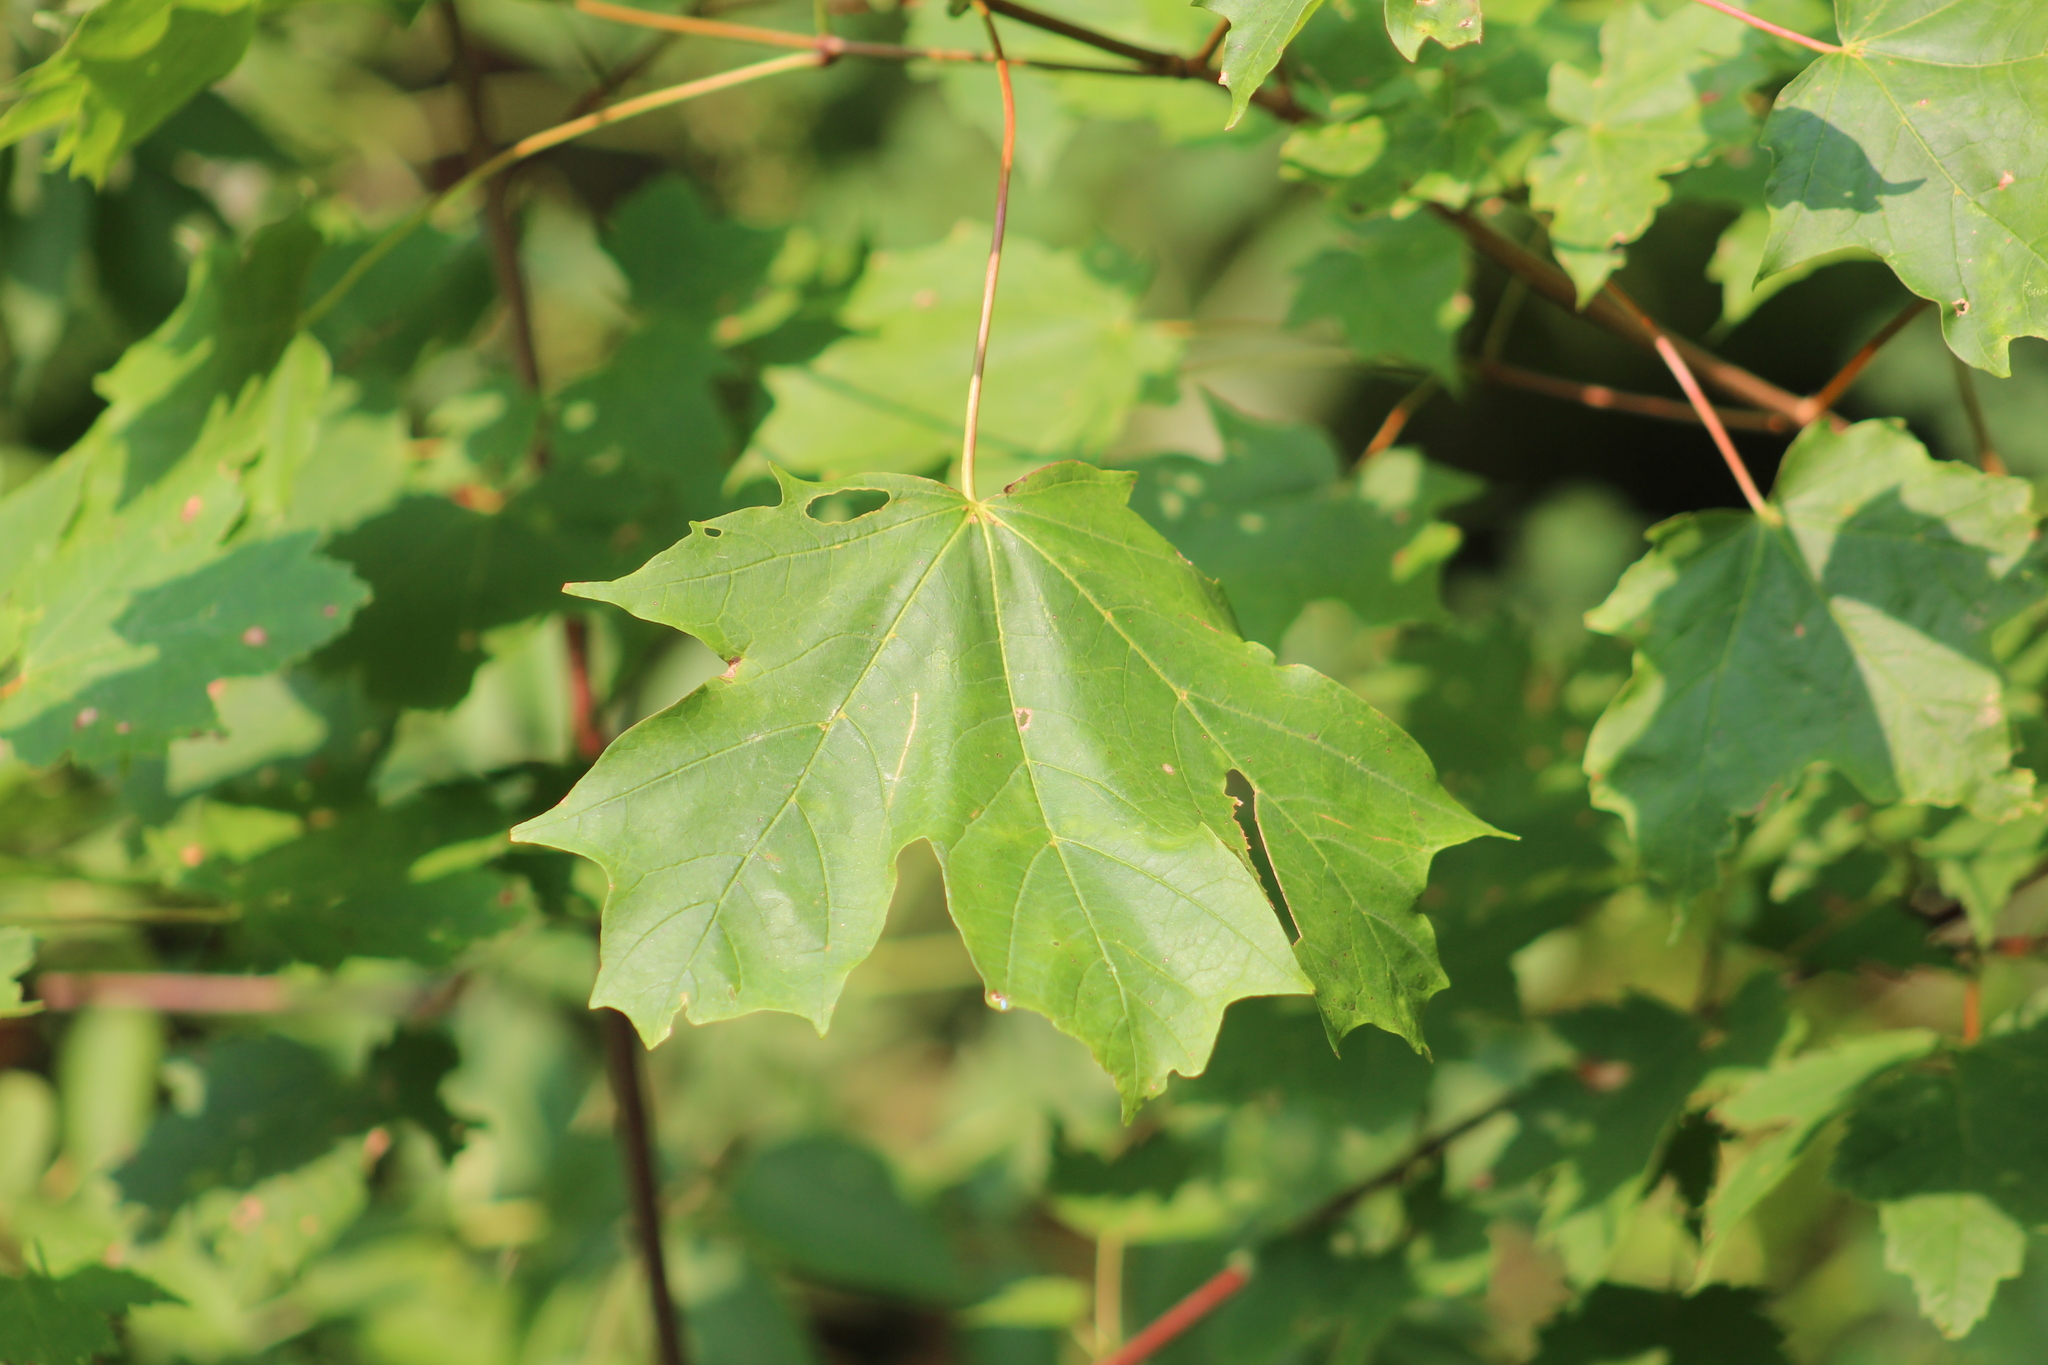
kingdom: Plantae
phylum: Tracheophyta
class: Magnoliopsida
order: Sapindales
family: Sapindaceae
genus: Acer
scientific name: Acer saccharum
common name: Sugar maple
